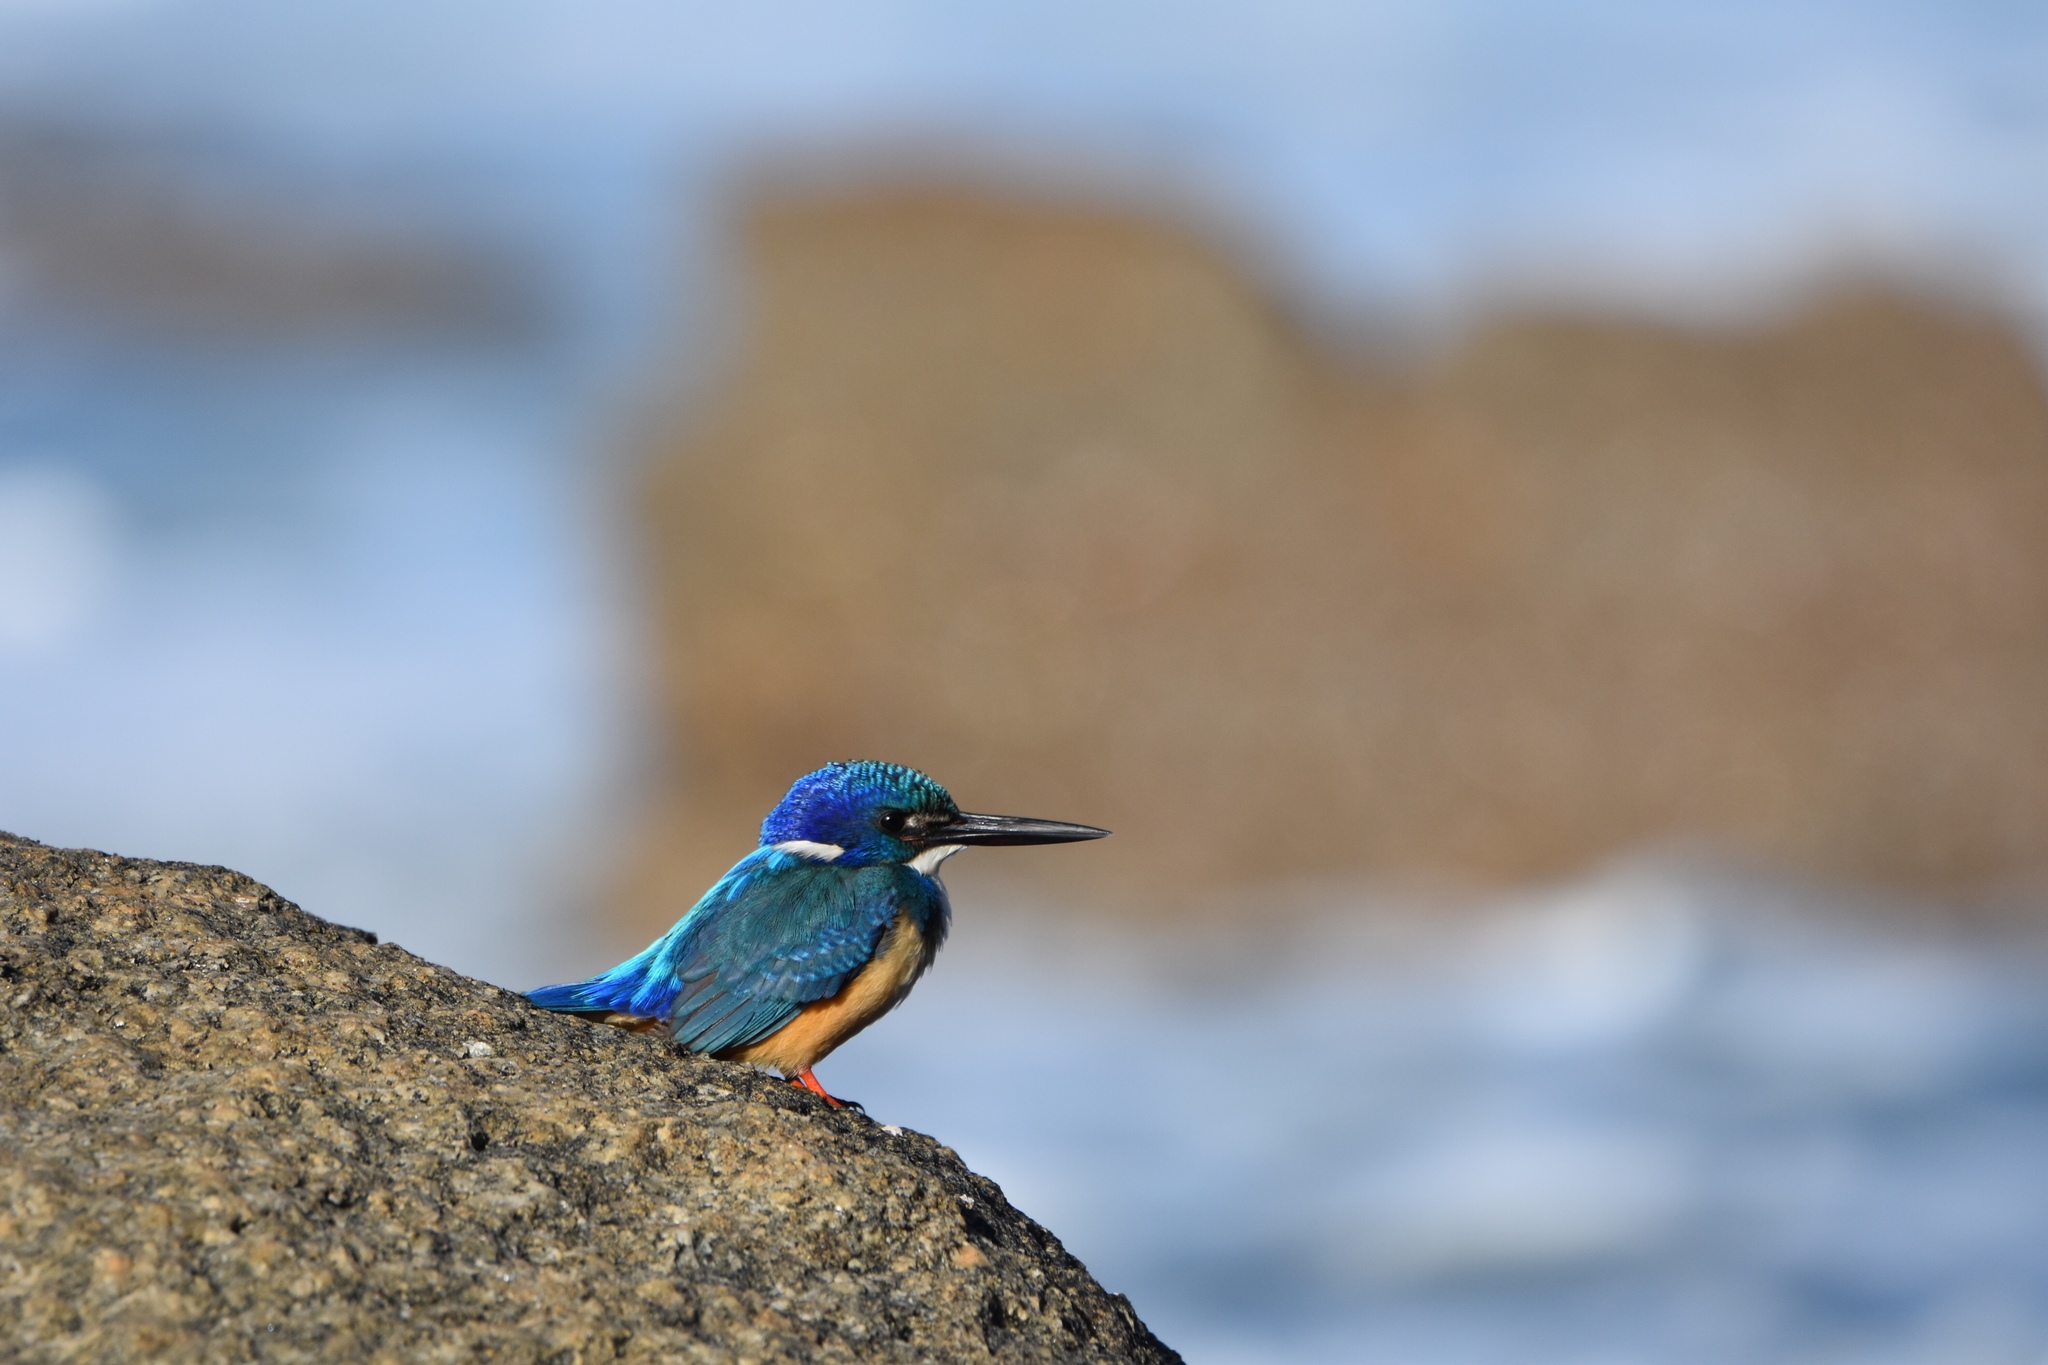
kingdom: Animalia
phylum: Chordata
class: Aves
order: Coraciiformes
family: Alcedinidae
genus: Alcedo
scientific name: Alcedo semitorquata
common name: Half-collared kingfisher
